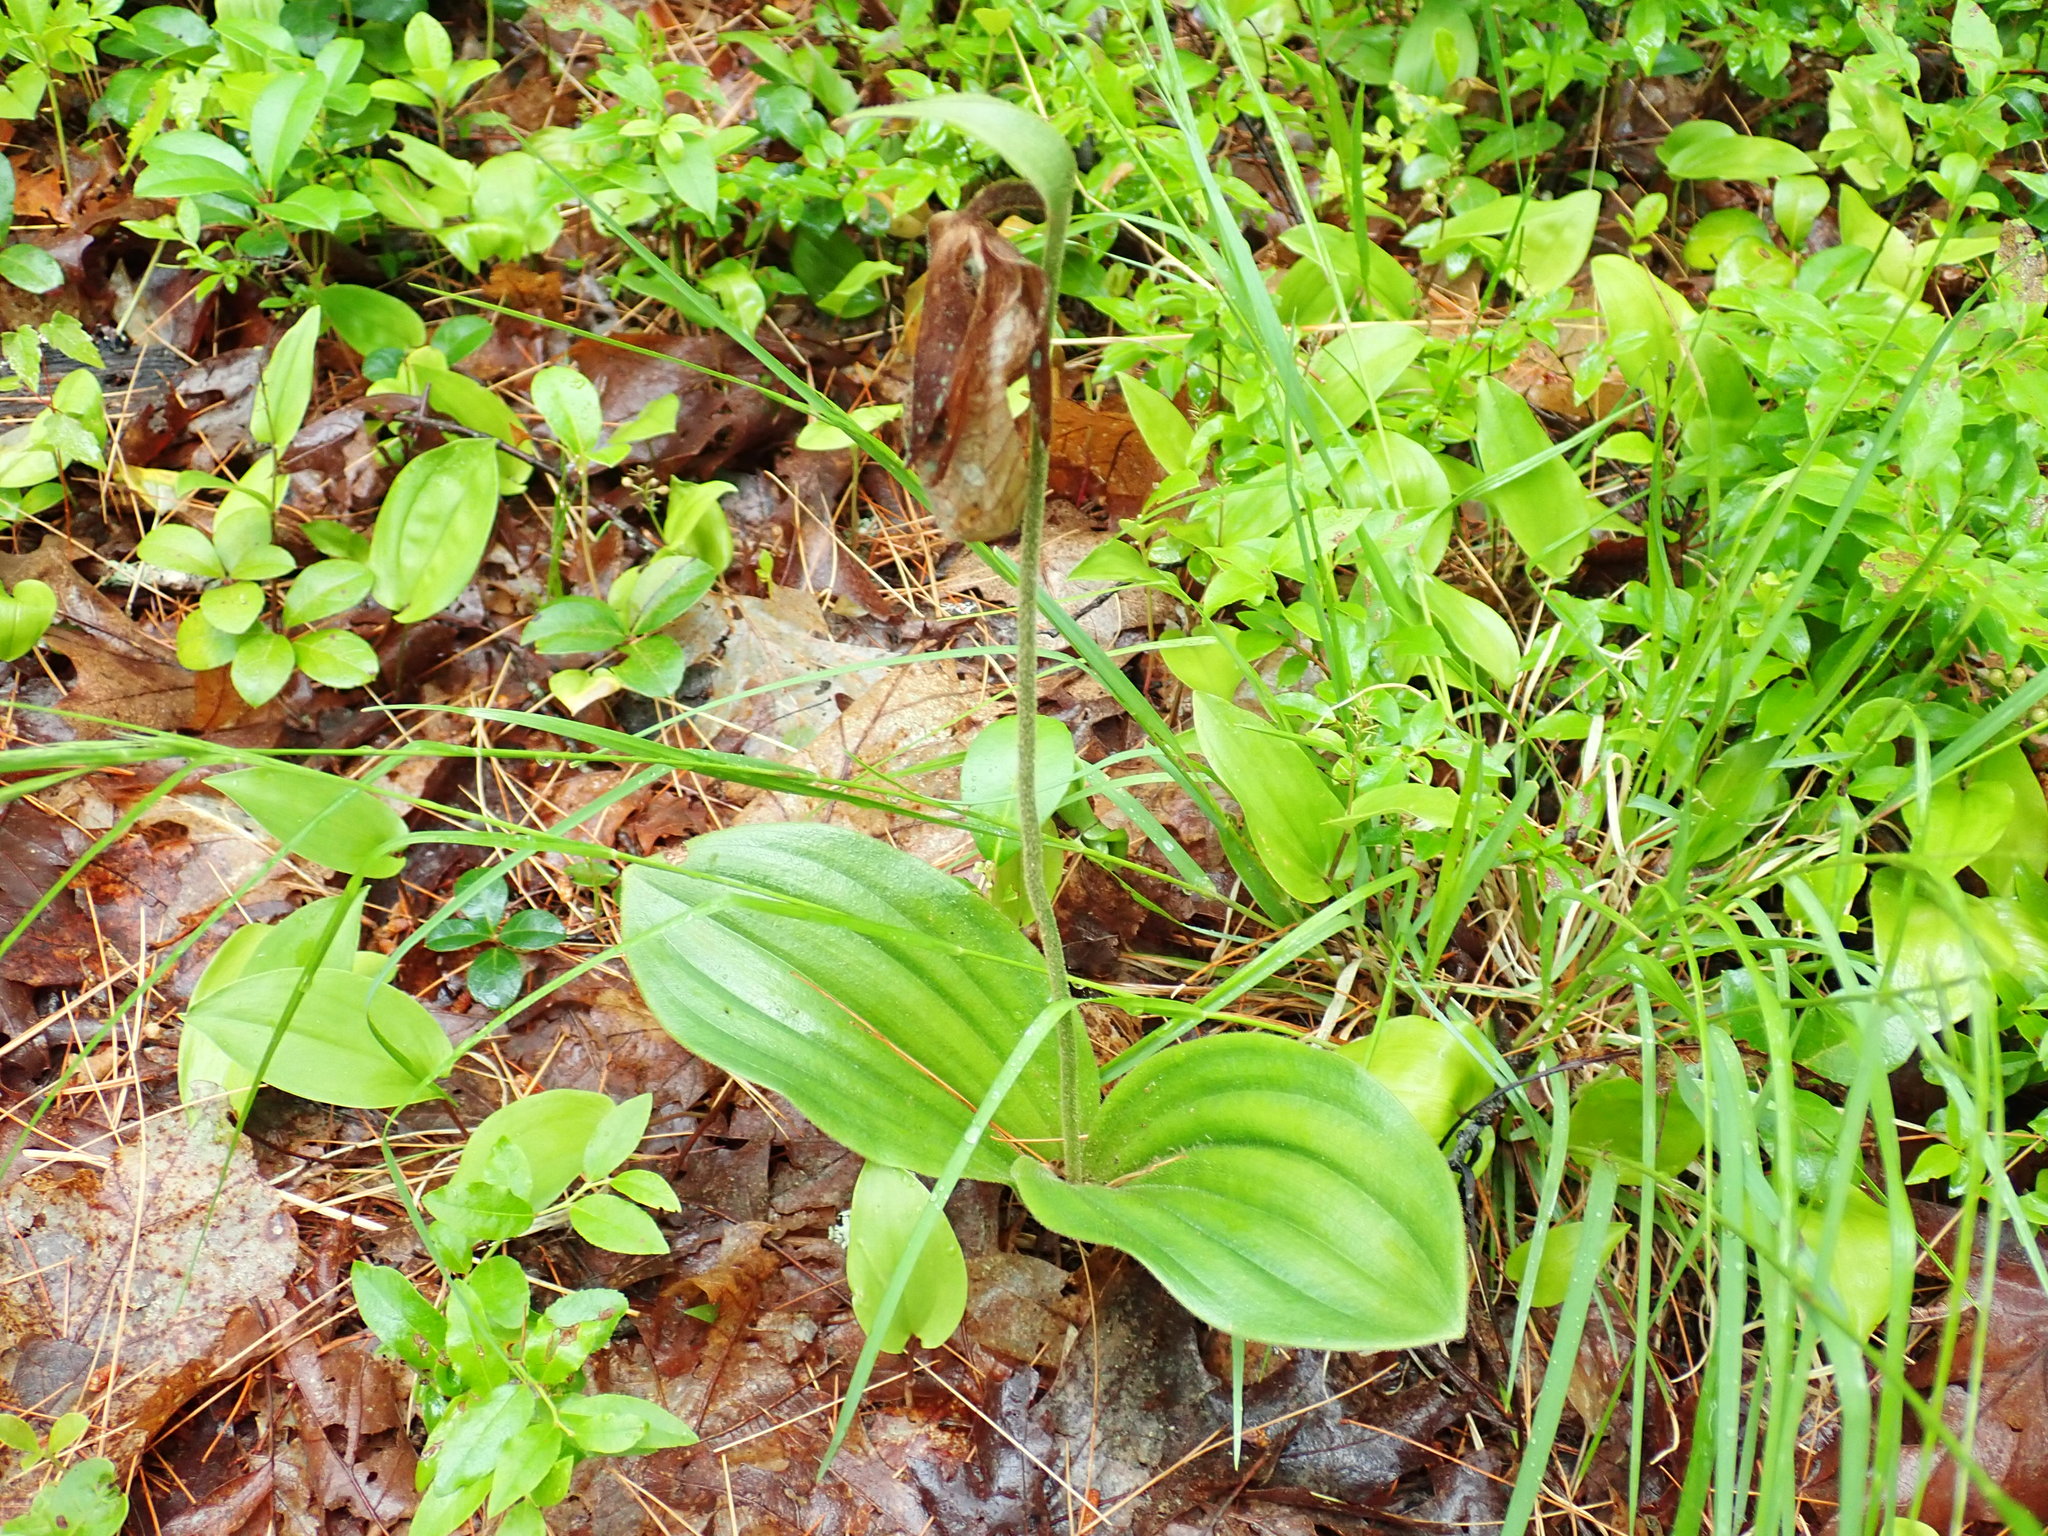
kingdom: Plantae
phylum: Tracheophyta
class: Liliopsida
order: Asparagales
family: Orchidaceae
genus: Cypripedium
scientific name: Cypripedium acaule
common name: Pink lady's-slipper
